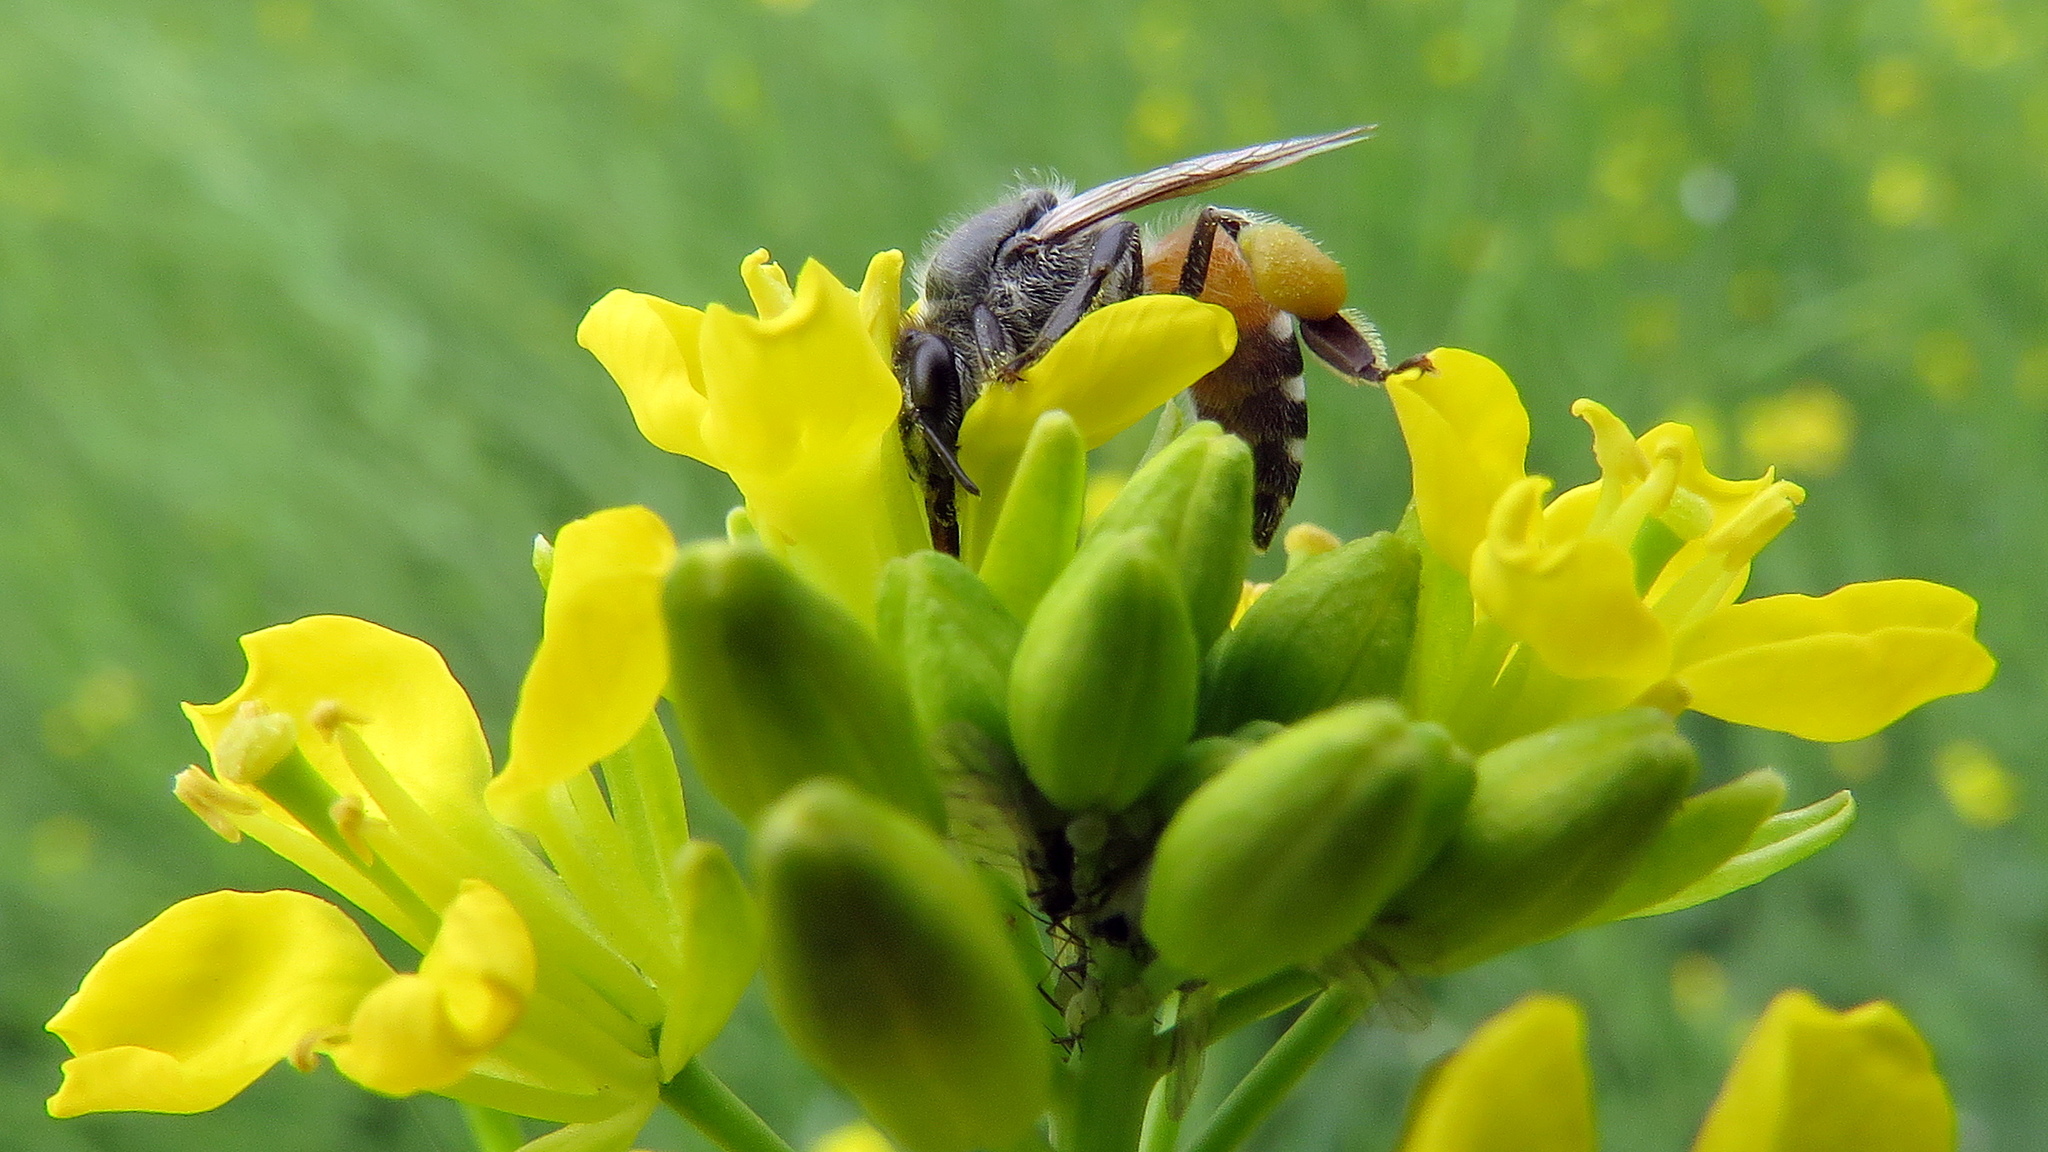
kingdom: Animalia
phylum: Arthropoda
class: Insecta
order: Hymenoptera
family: Apidae
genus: Apis
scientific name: Apis florea
